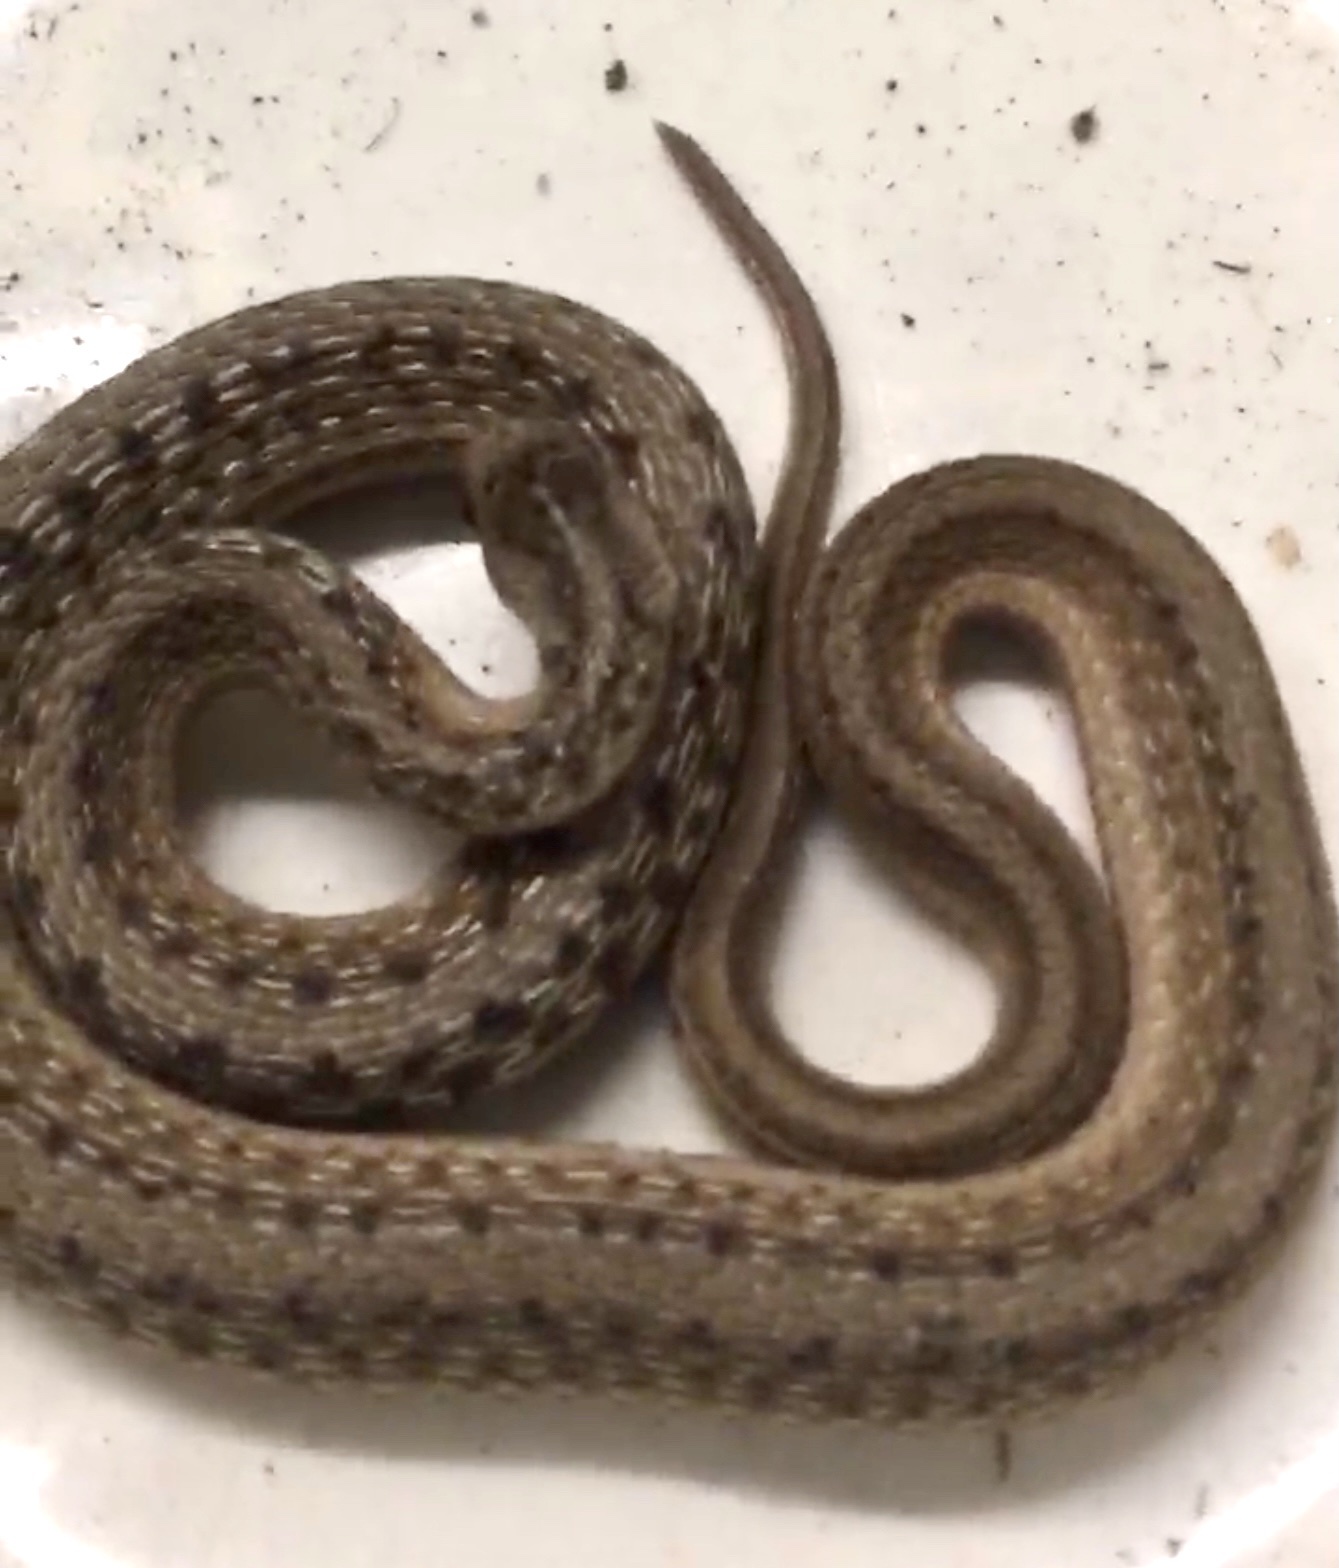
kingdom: Animalia
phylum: Chordata
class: Squamata
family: Colubridae
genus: Storeria
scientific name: Storeria dekayi
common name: (dekay’s) brown snake
